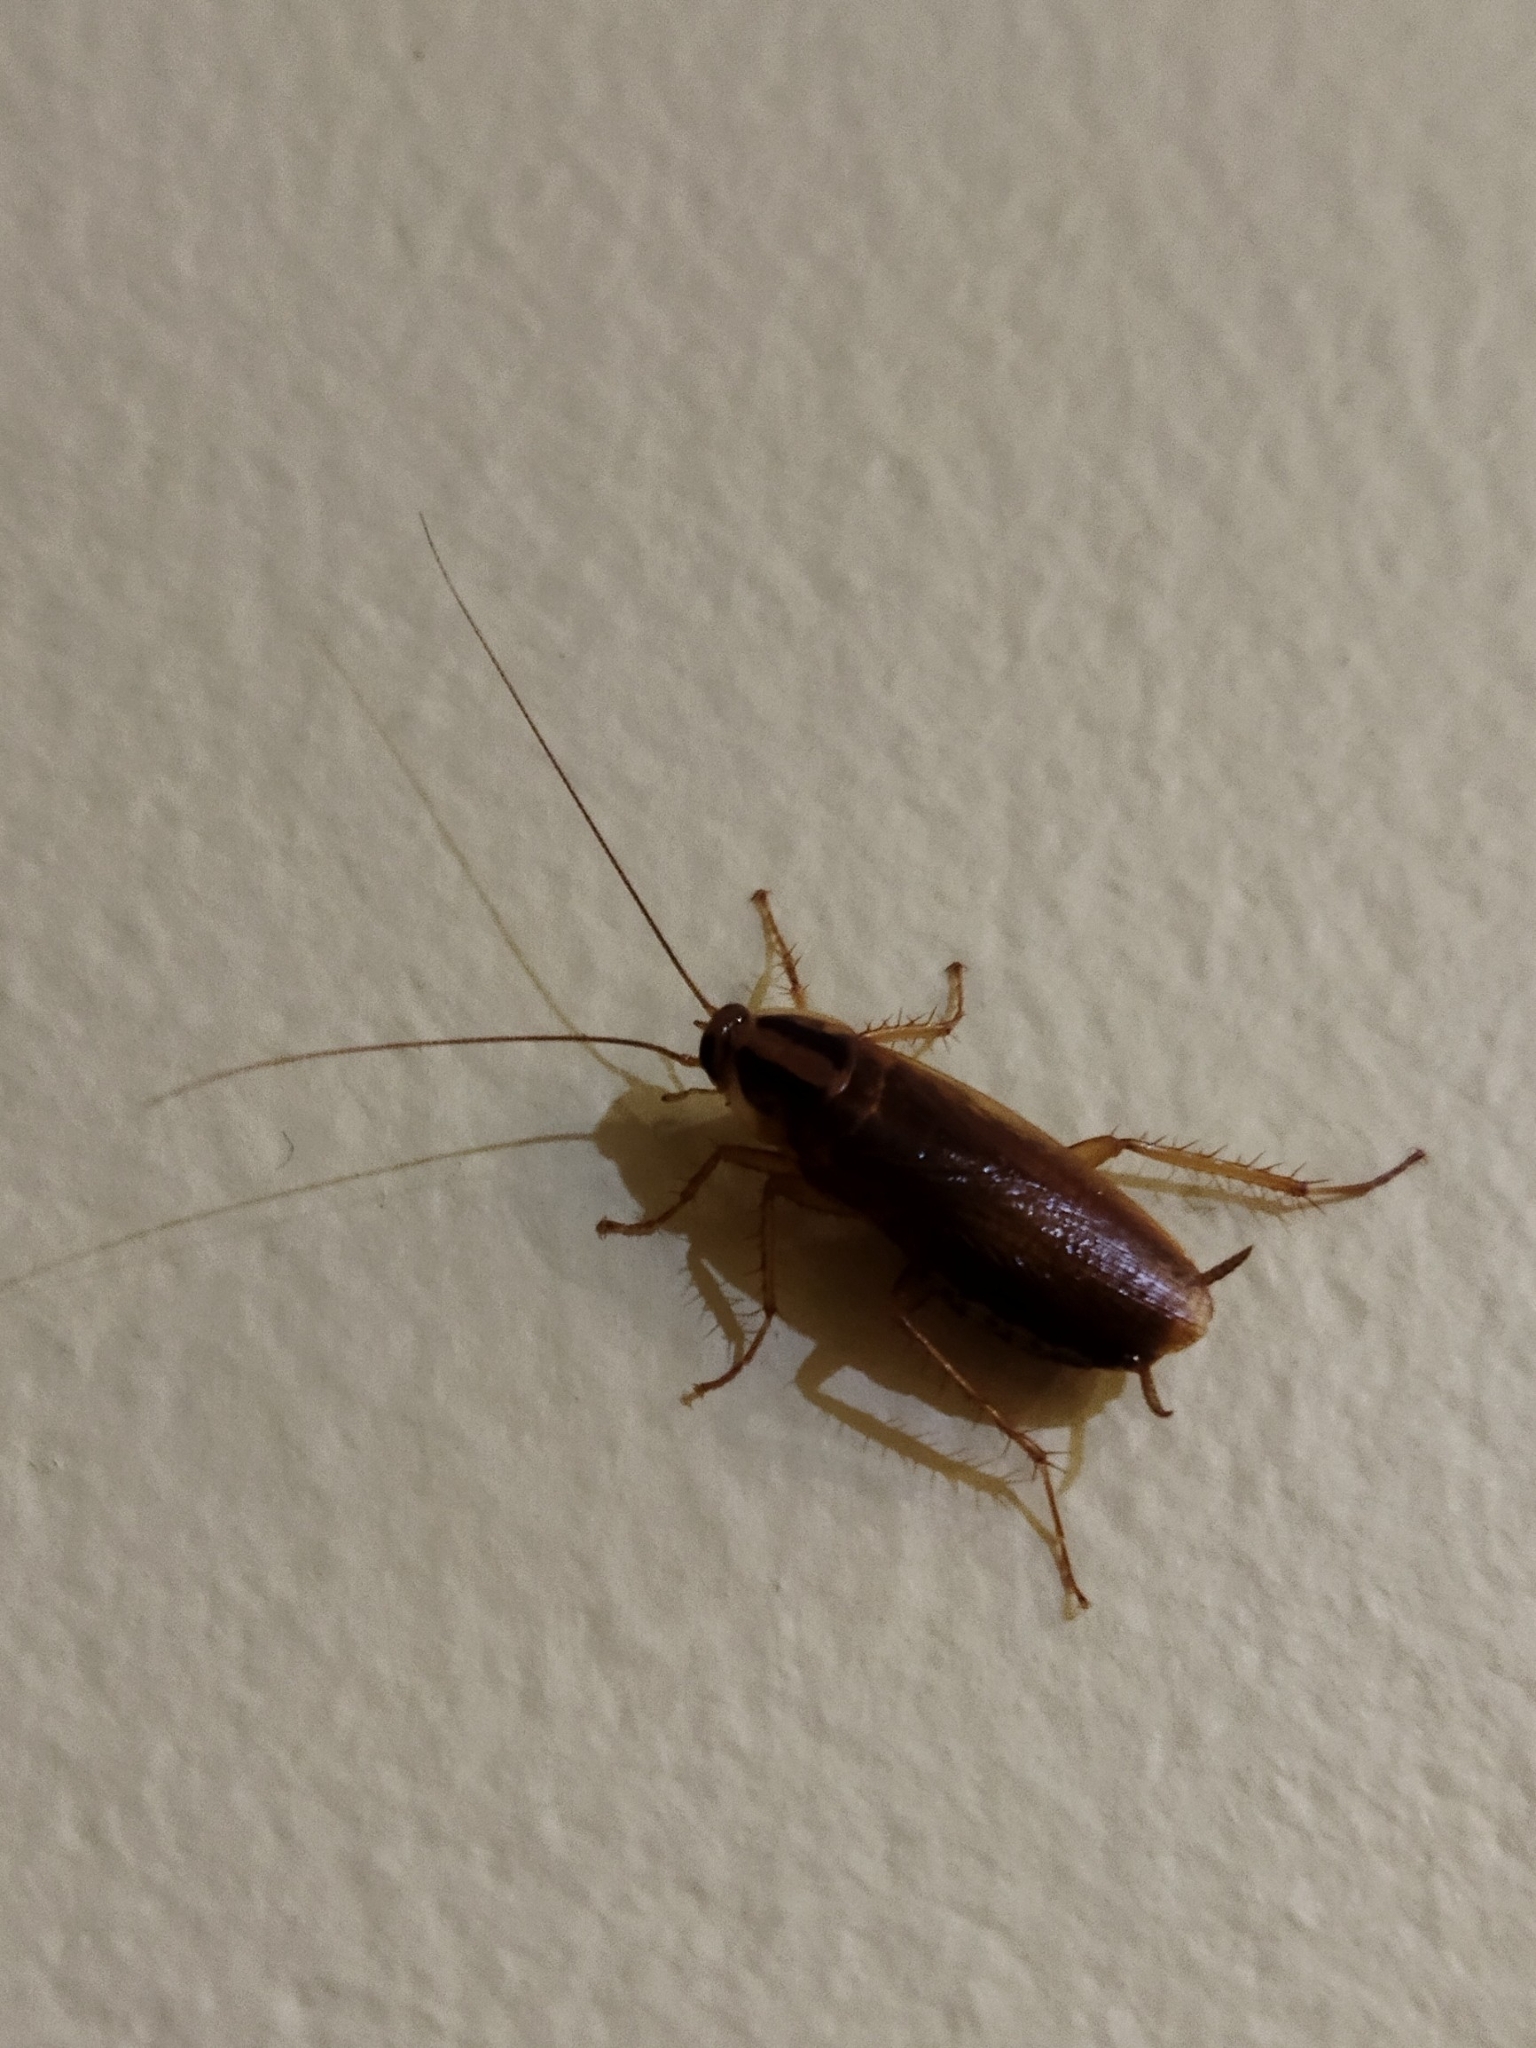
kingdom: Animalia
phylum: Arthropoda
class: Insecta
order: Blattodea
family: Ectobiidae
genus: Blattella
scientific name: Blattella germanica
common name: German cockroach
